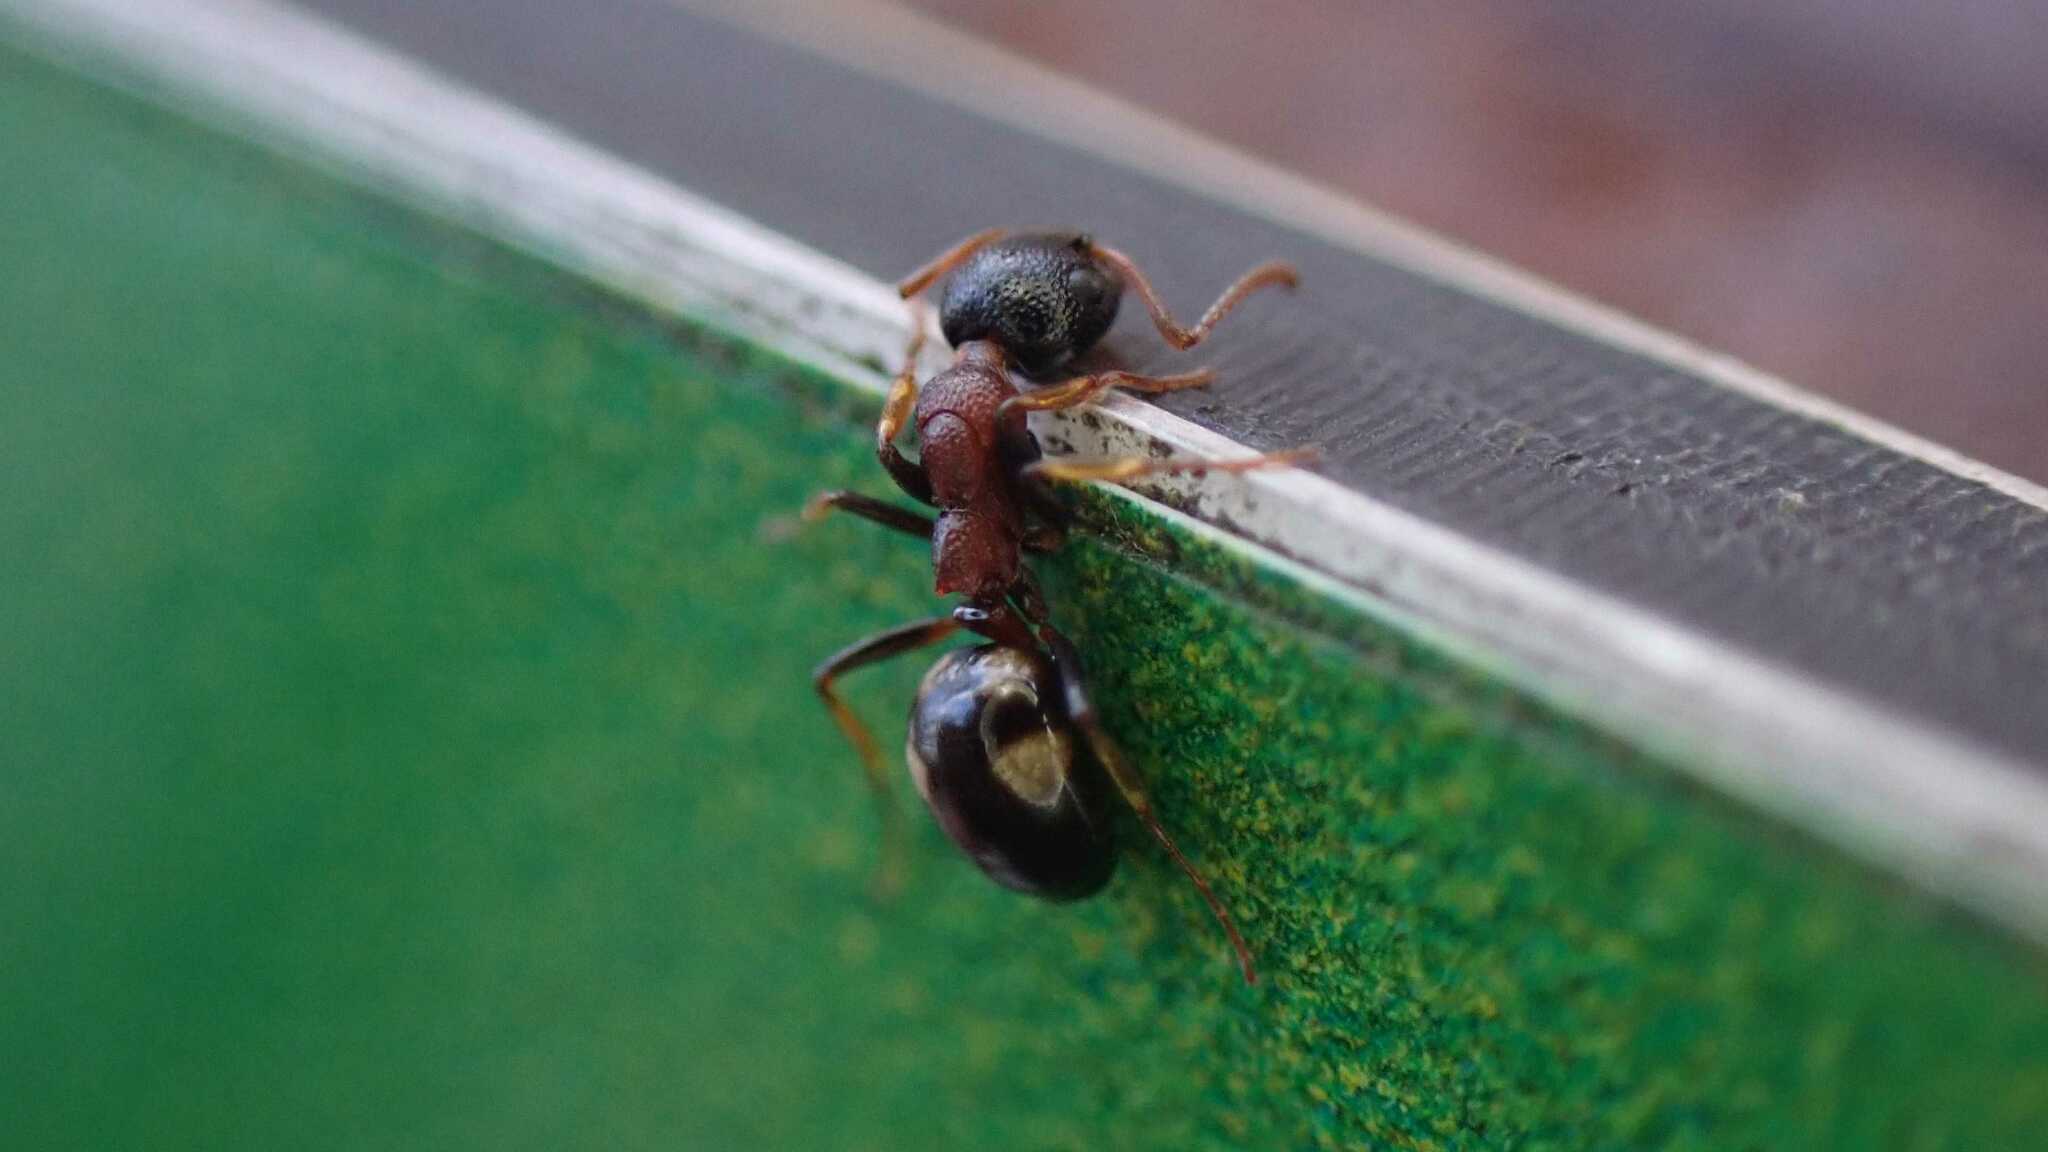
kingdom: Animalia
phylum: Arthropoda
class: Insecta
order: Hymenoptera
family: Formicidae
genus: Dolichoderus
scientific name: Dolichoderus quadripunctatus
